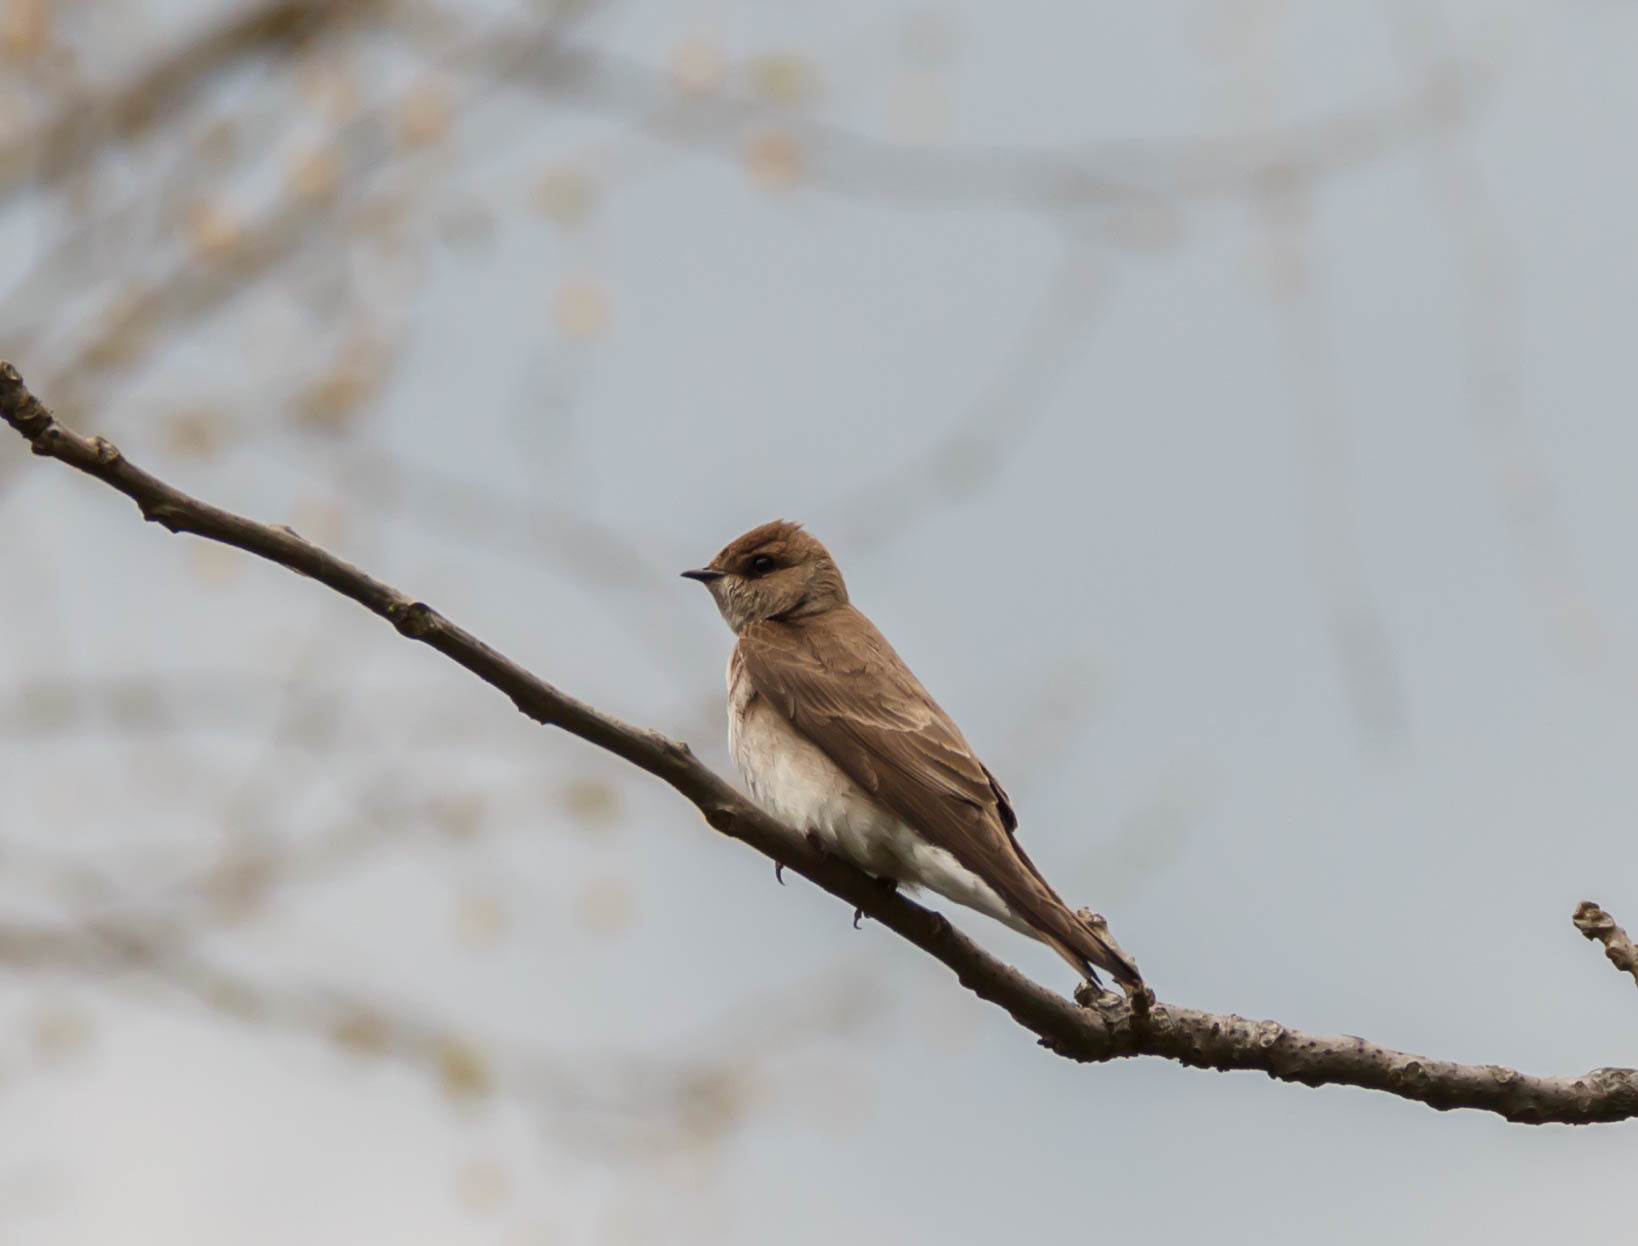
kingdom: Animalia
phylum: Chordata
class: Aves
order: Passeriformes
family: Hirundinidae
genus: Stelgidopteryx
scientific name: Stelgidopteryx serripennis
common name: Northern rough-winged swallow
